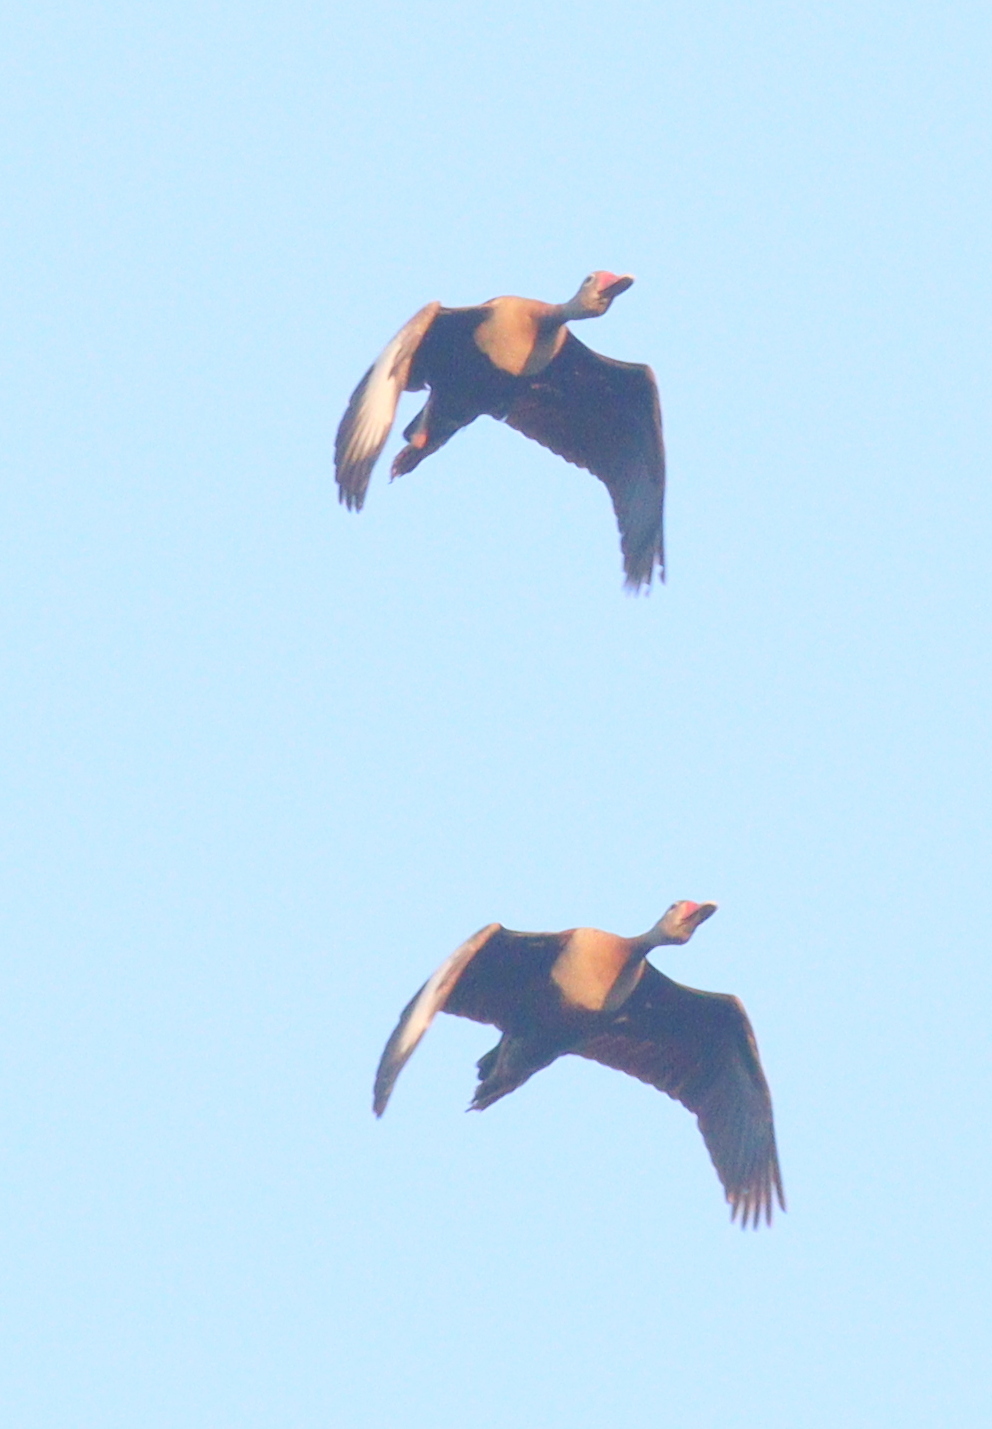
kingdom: Animalia
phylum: Chordata
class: Aves
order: Anseriformes
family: Anatidae
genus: Dendrocygna
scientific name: Dendrocygna autumnalis
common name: Black-bellied whistling duck
